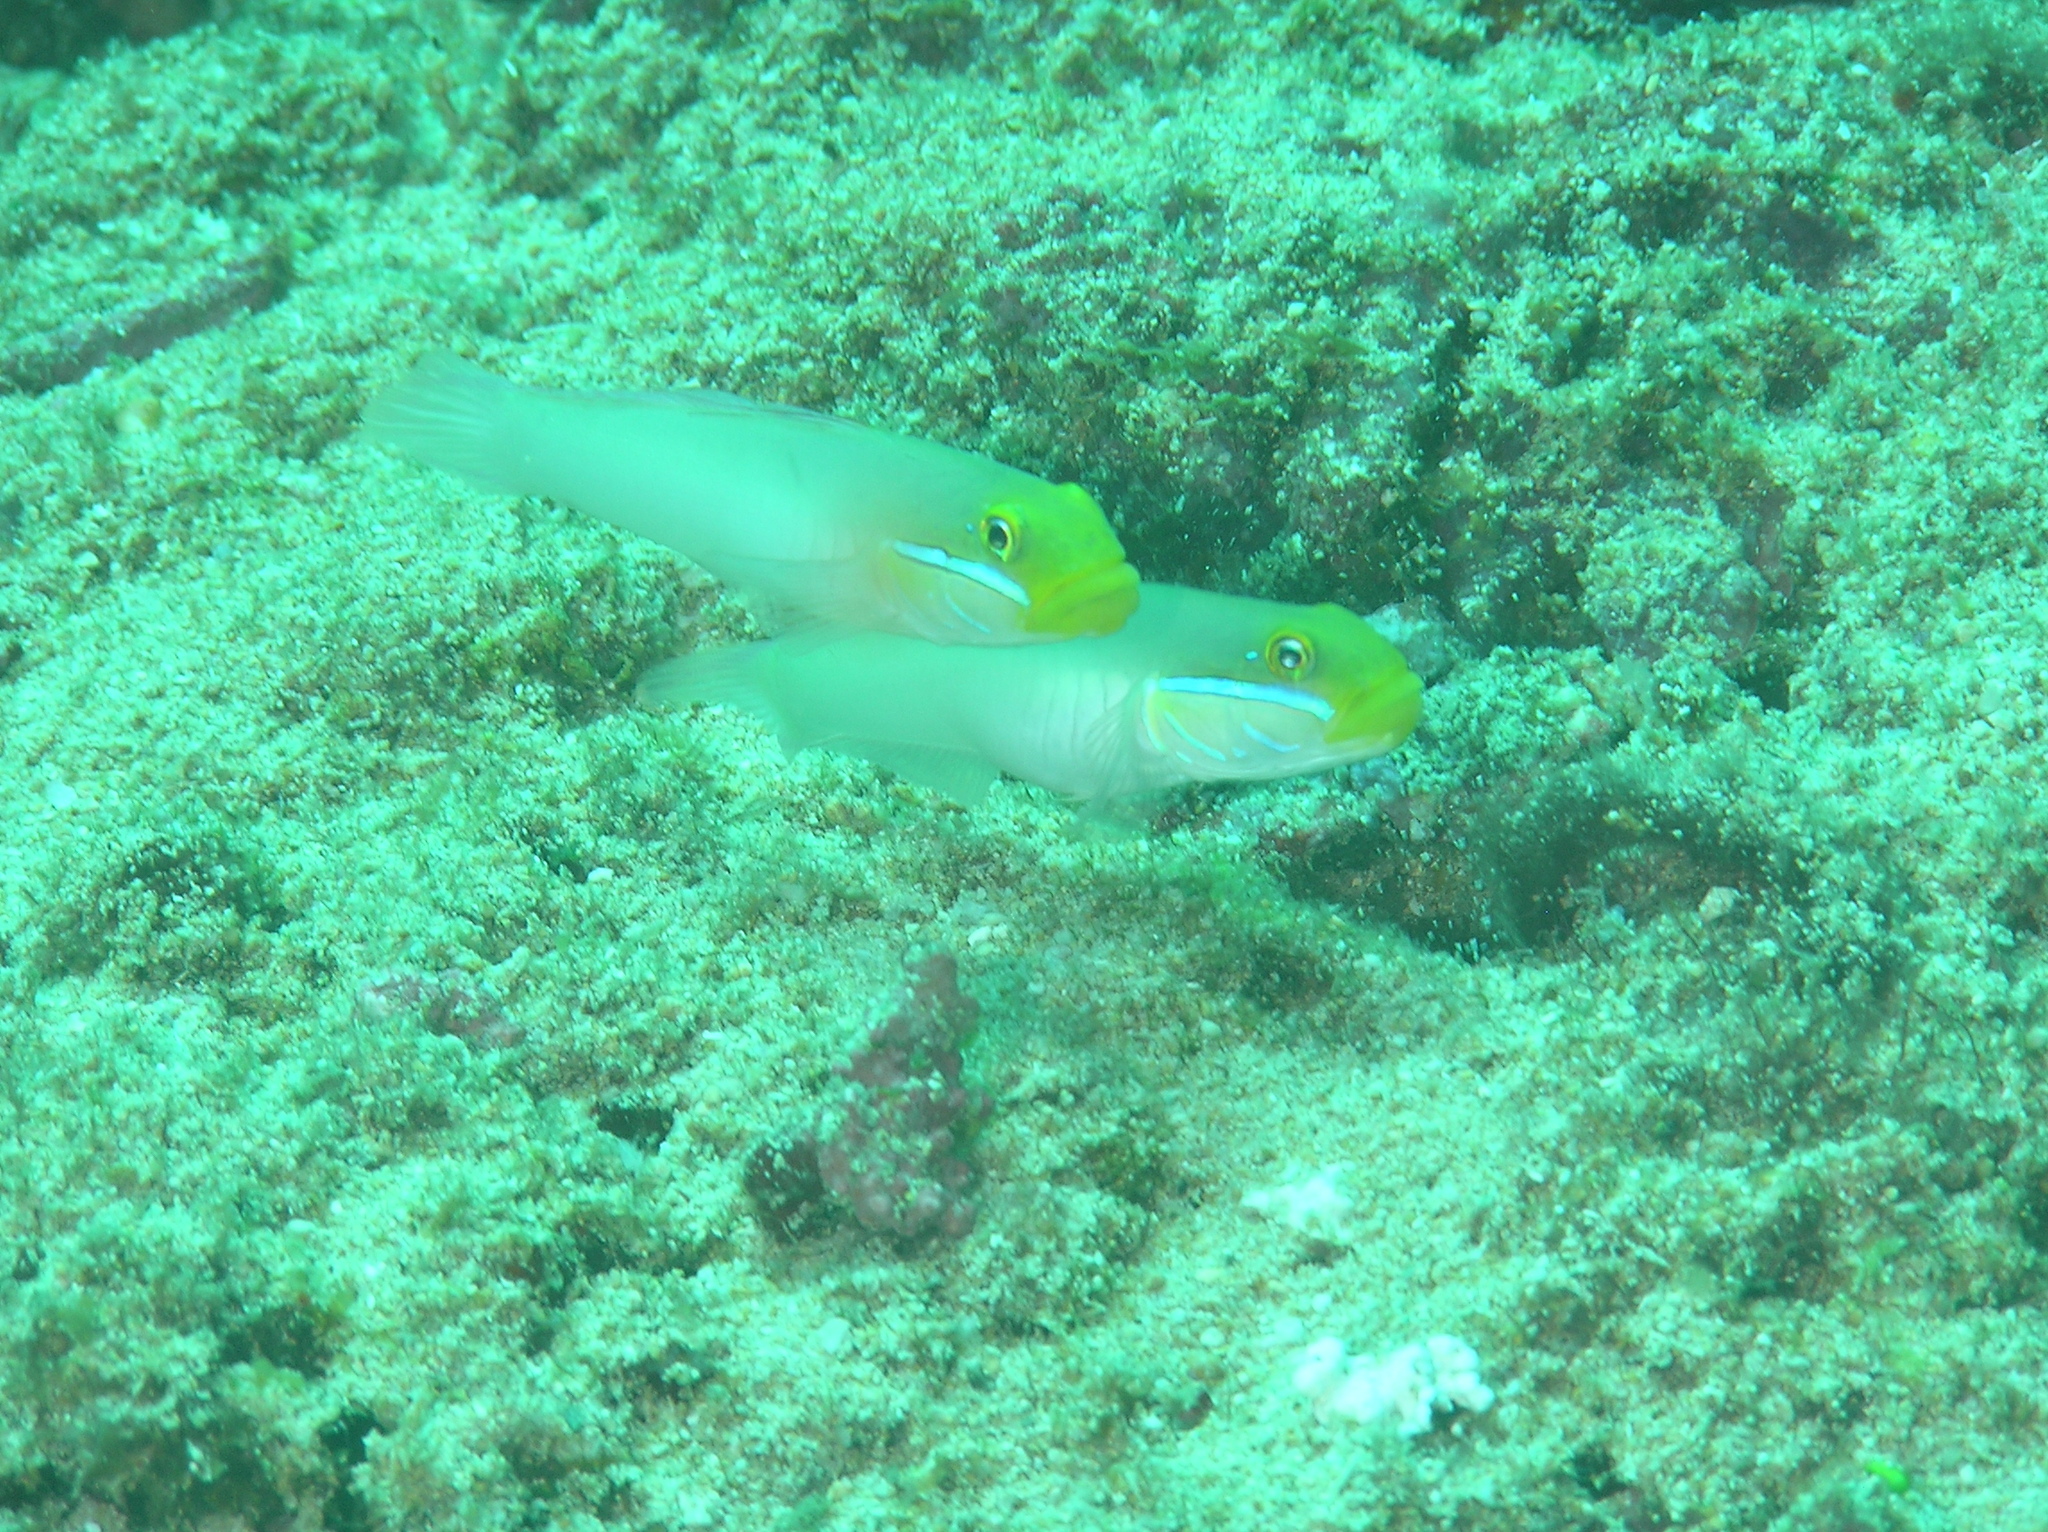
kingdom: Animalia
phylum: Chordata
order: Perciformes
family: Gobiidae
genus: Valenciennea
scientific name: Valenciennea strigata
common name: Blueband goby
